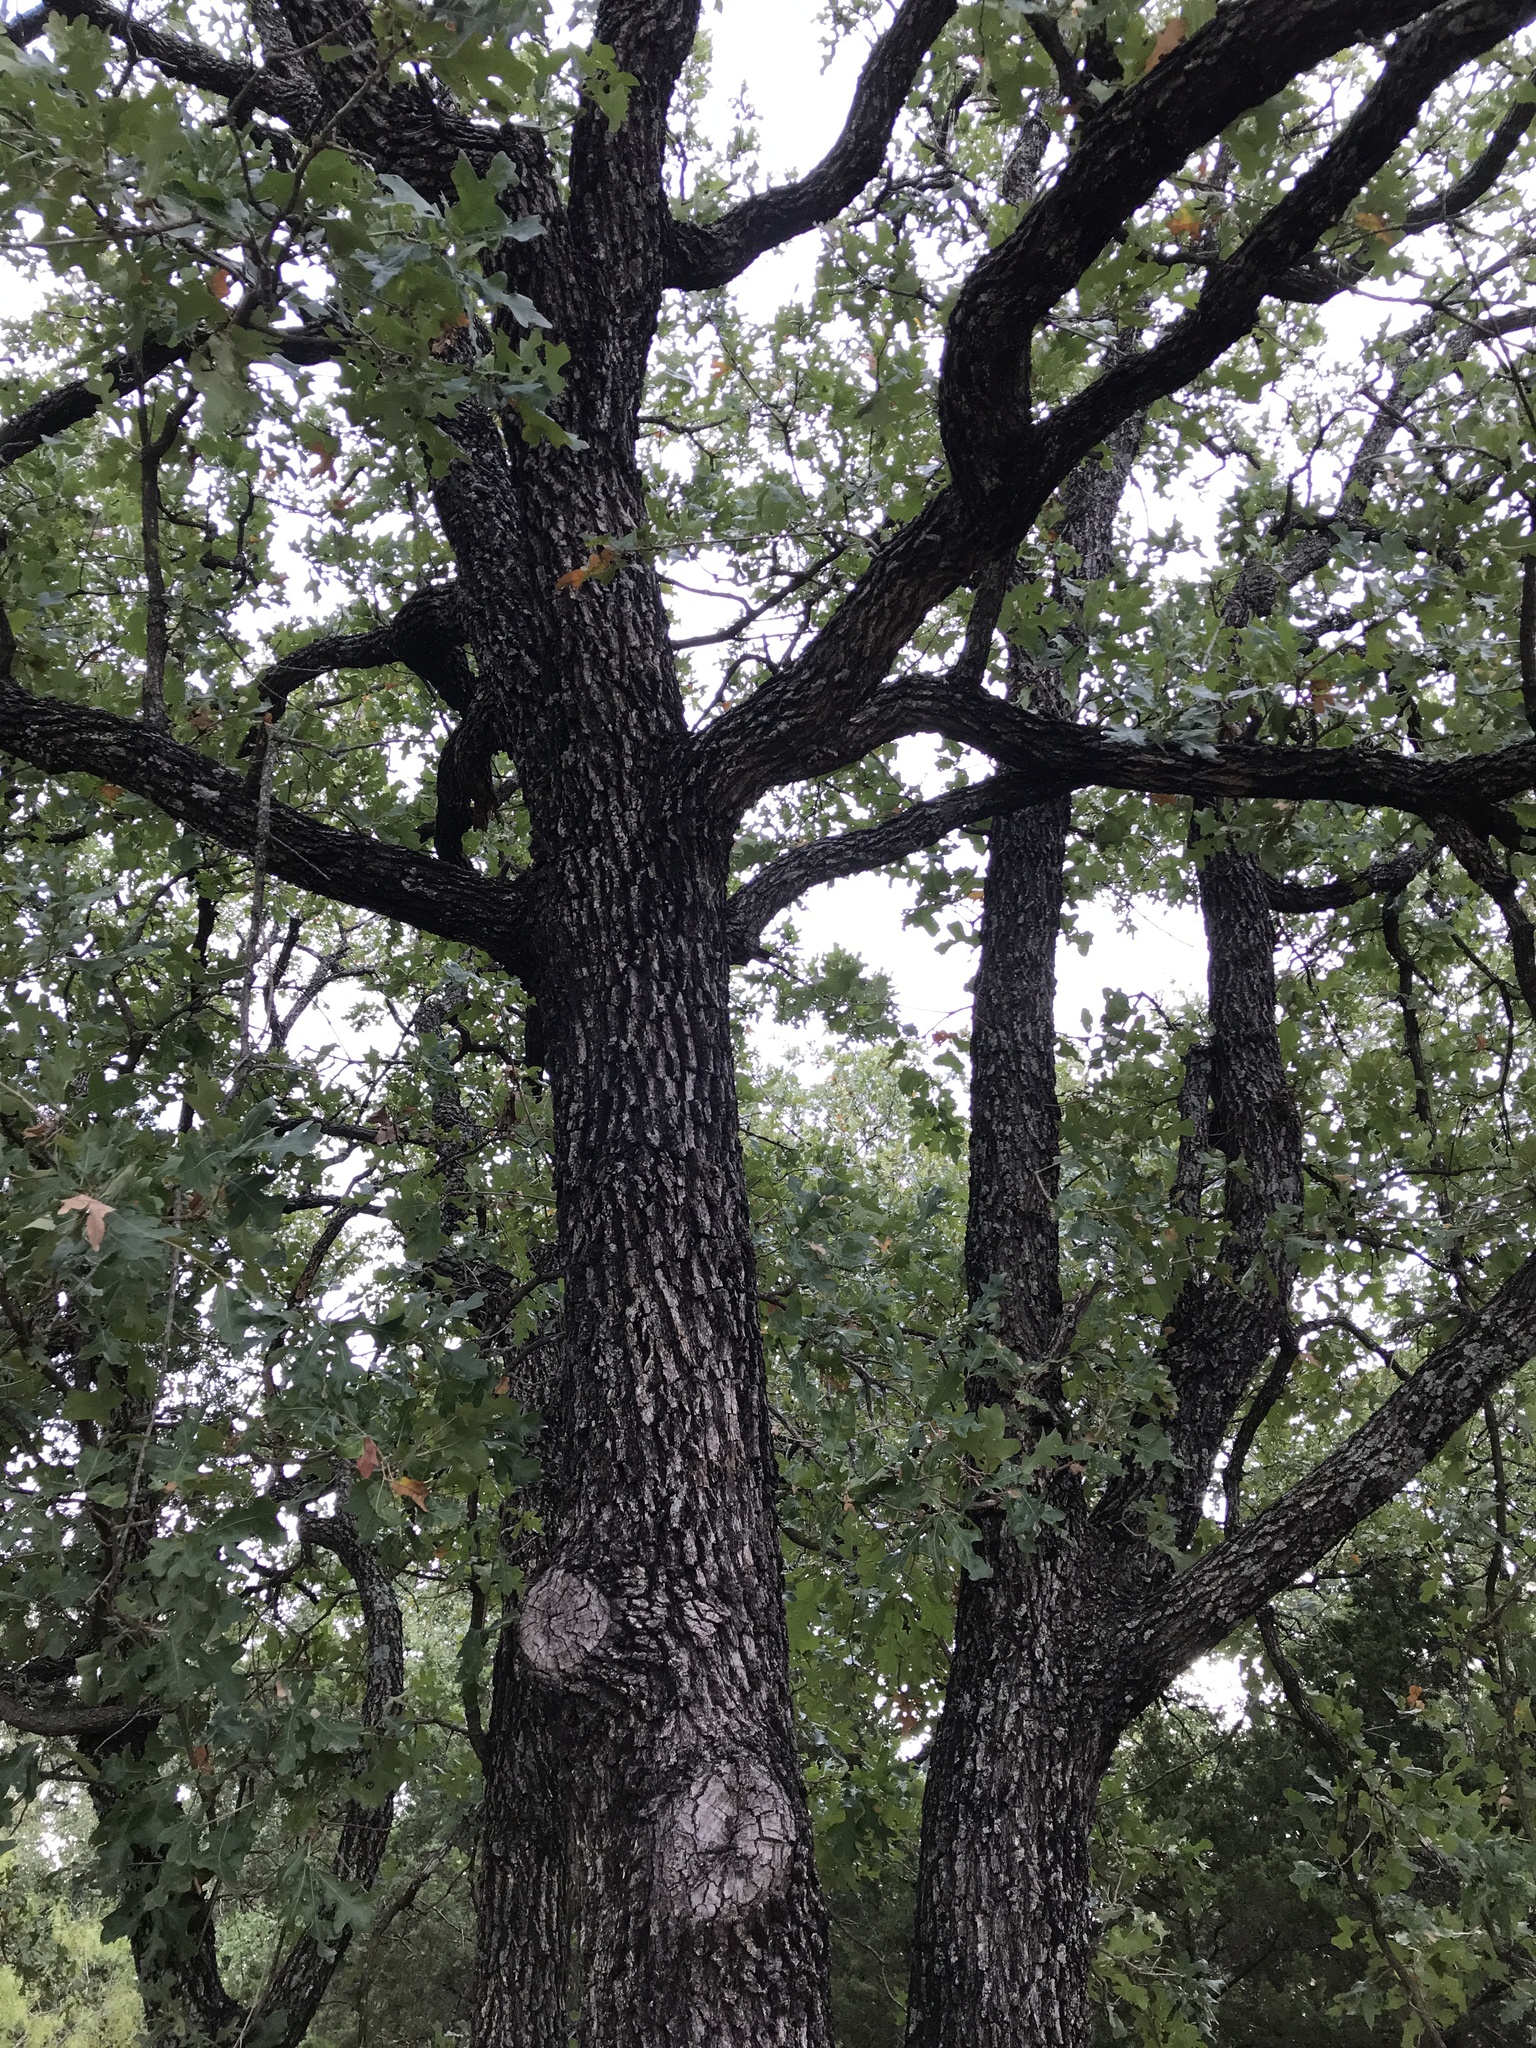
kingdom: Plantae
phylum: Tracheophyta
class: Magnoliopsida
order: Fagales
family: Fagaceae
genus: Quercus
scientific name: Quercus stellata
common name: Post oak
